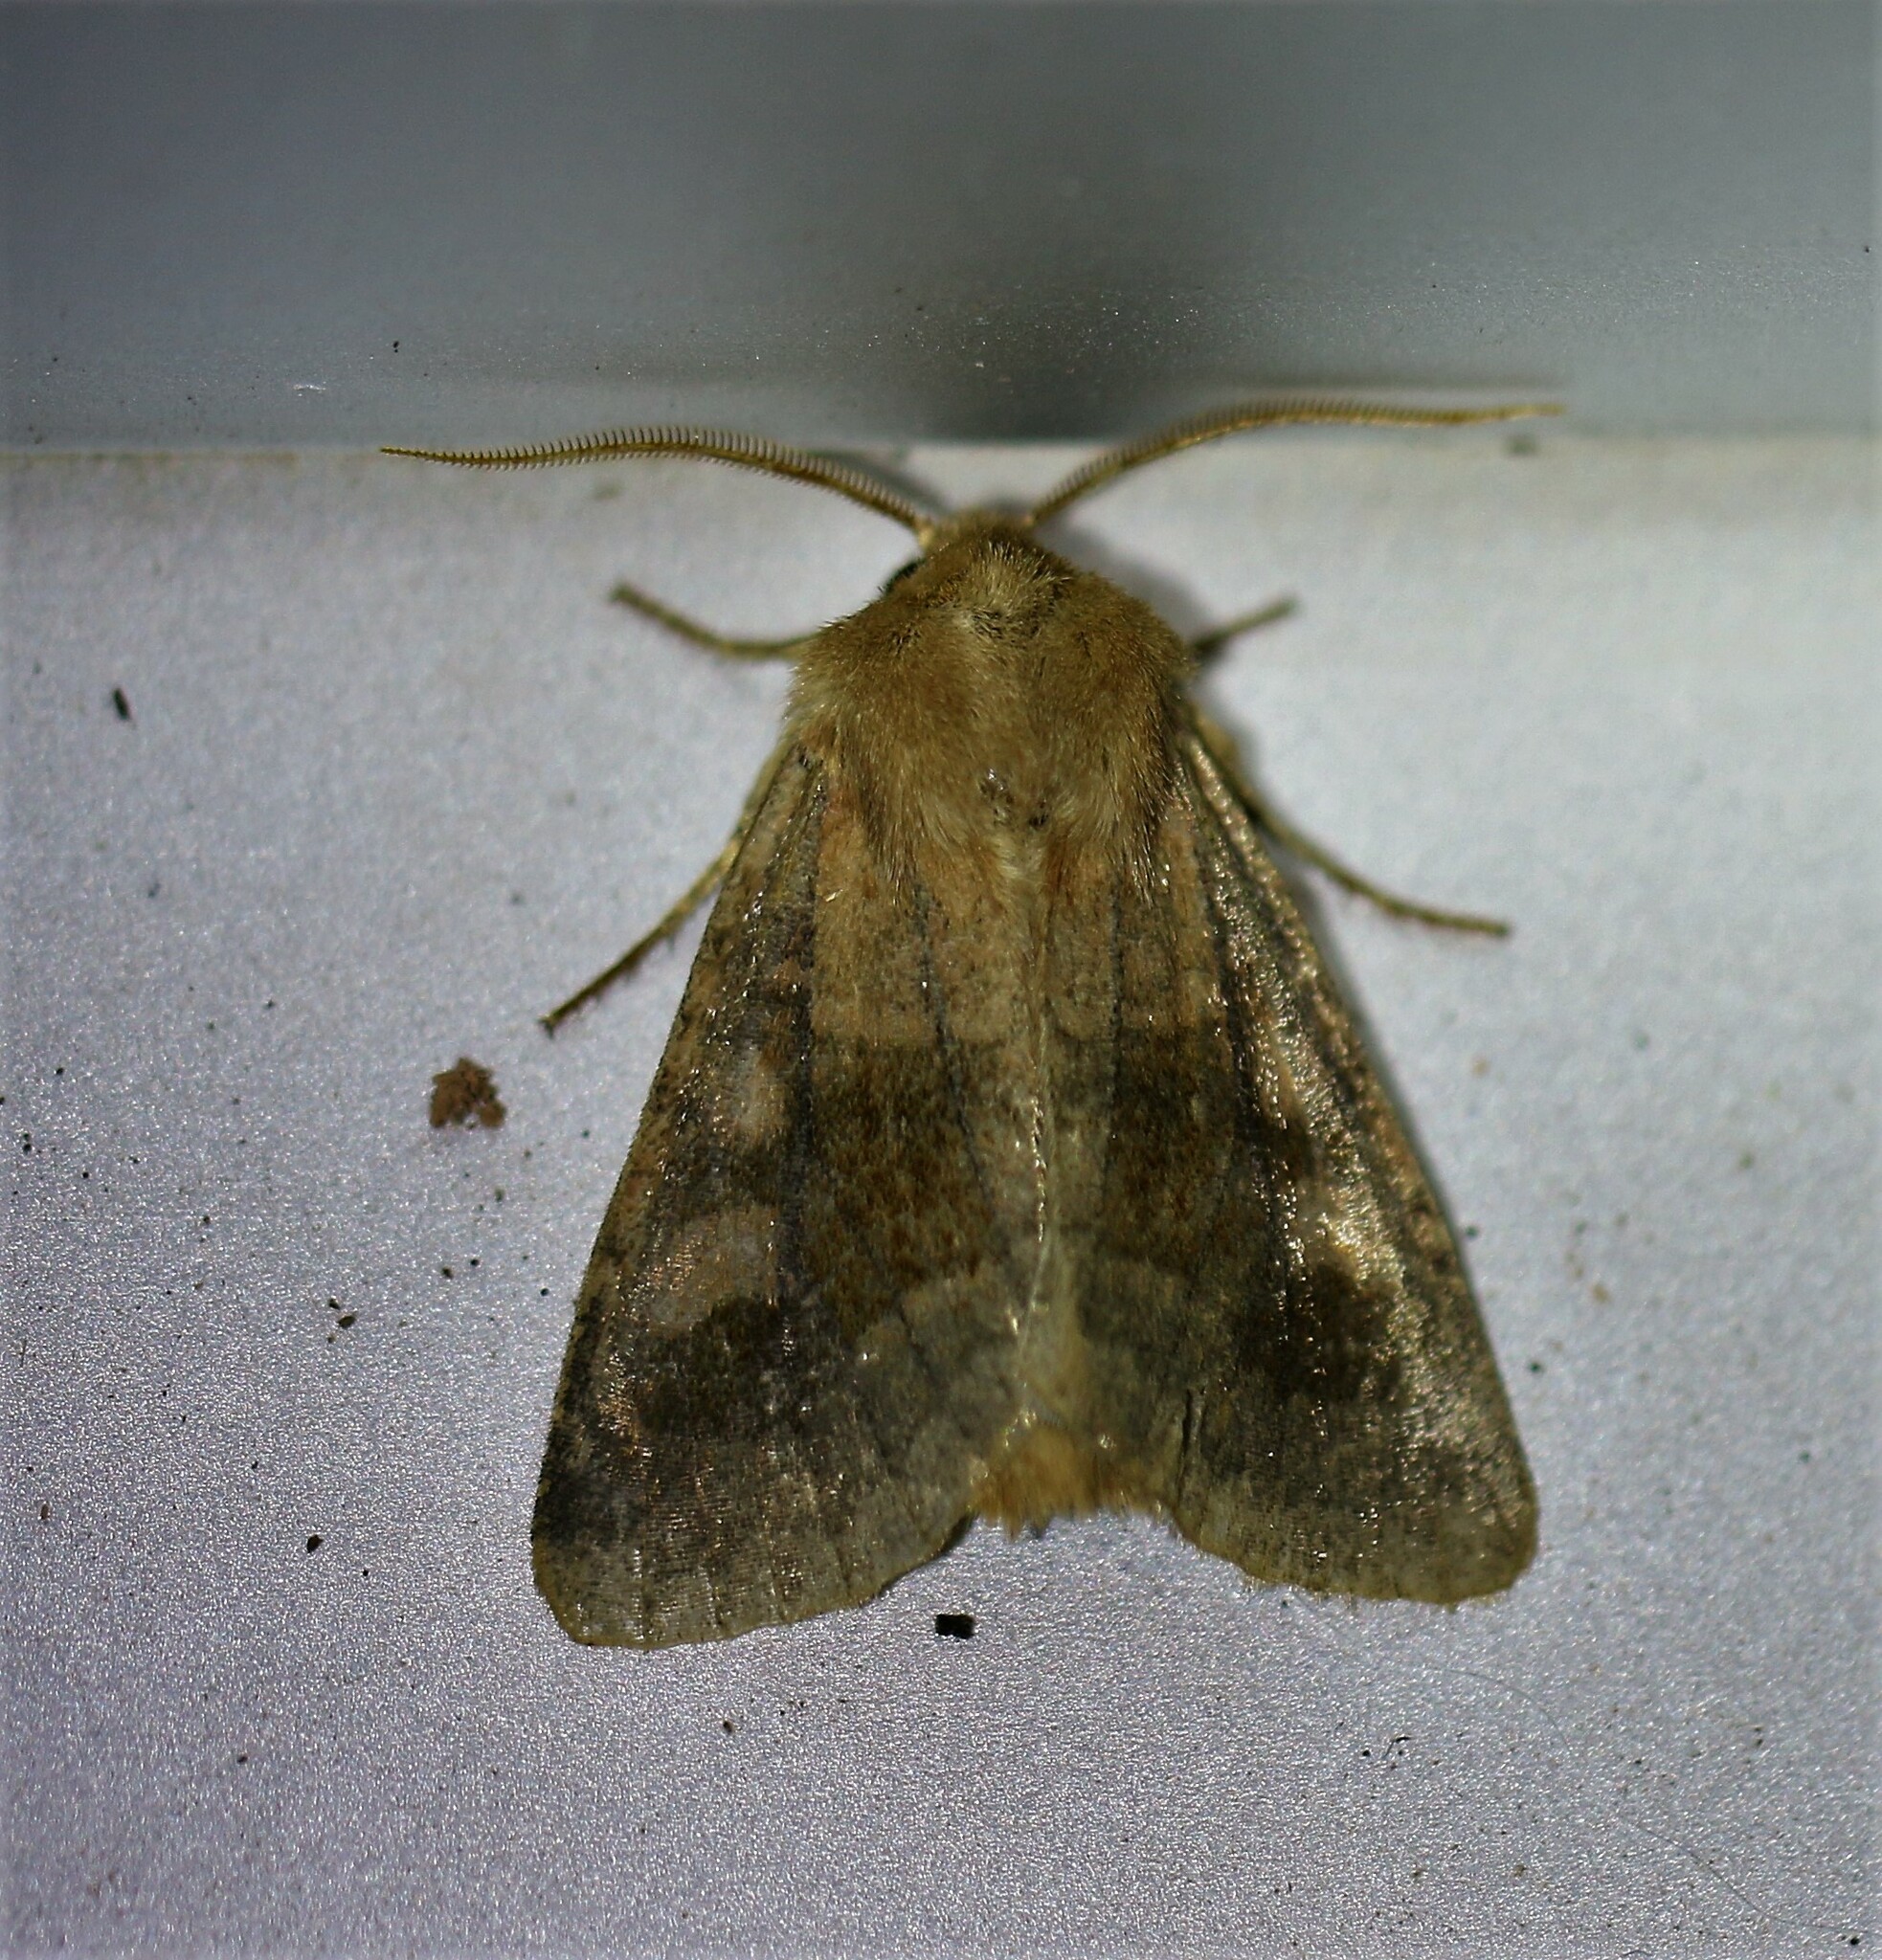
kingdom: Animalia
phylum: Arthropoda
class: Insecta
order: Lepidoptera
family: Noctuidae
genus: Nephelodes
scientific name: Nephelodes minians
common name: Bronzed cutworm
